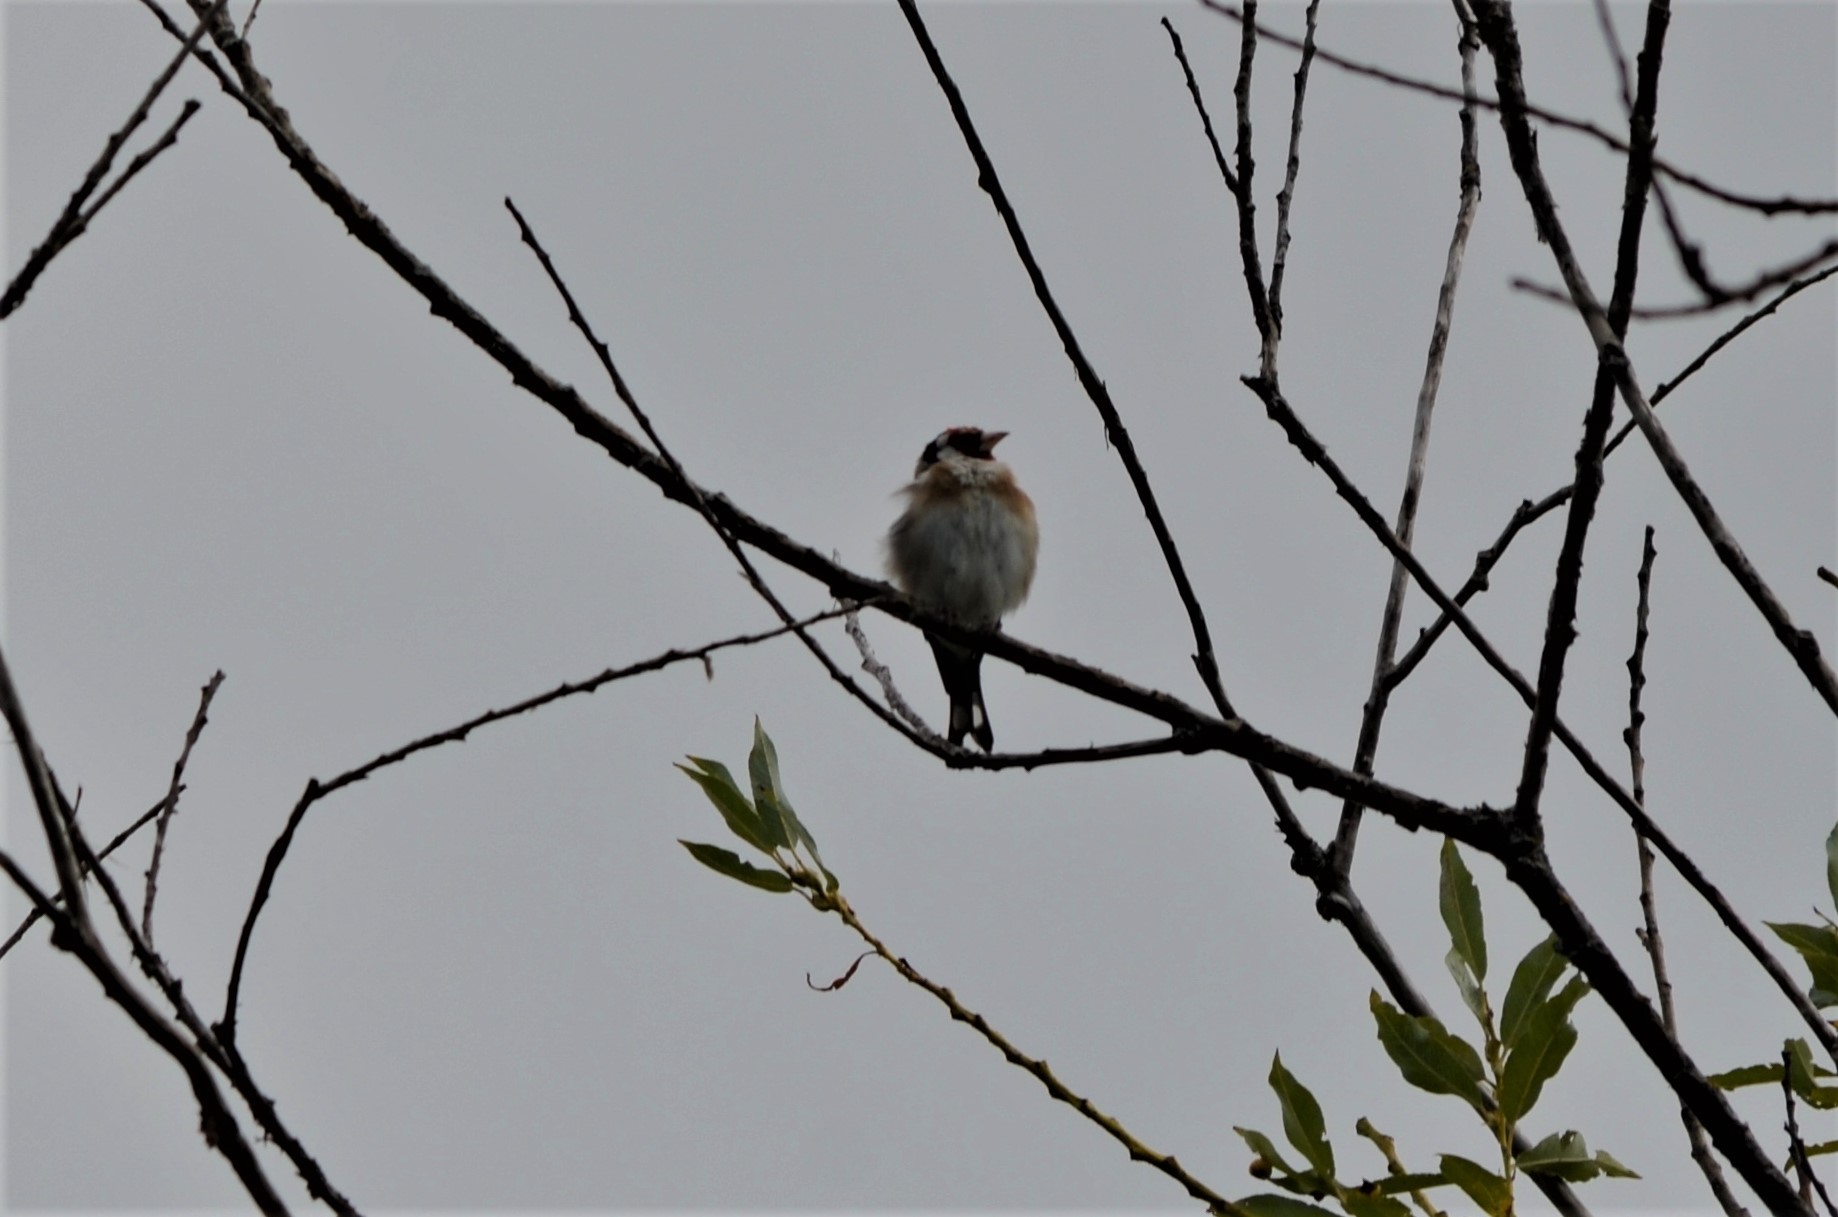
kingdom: Animalia
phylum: Chordata
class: Aves
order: Passeriformes
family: Fringillidae
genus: Carduelis
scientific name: Carduelis carduelis
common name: European goldfinch
